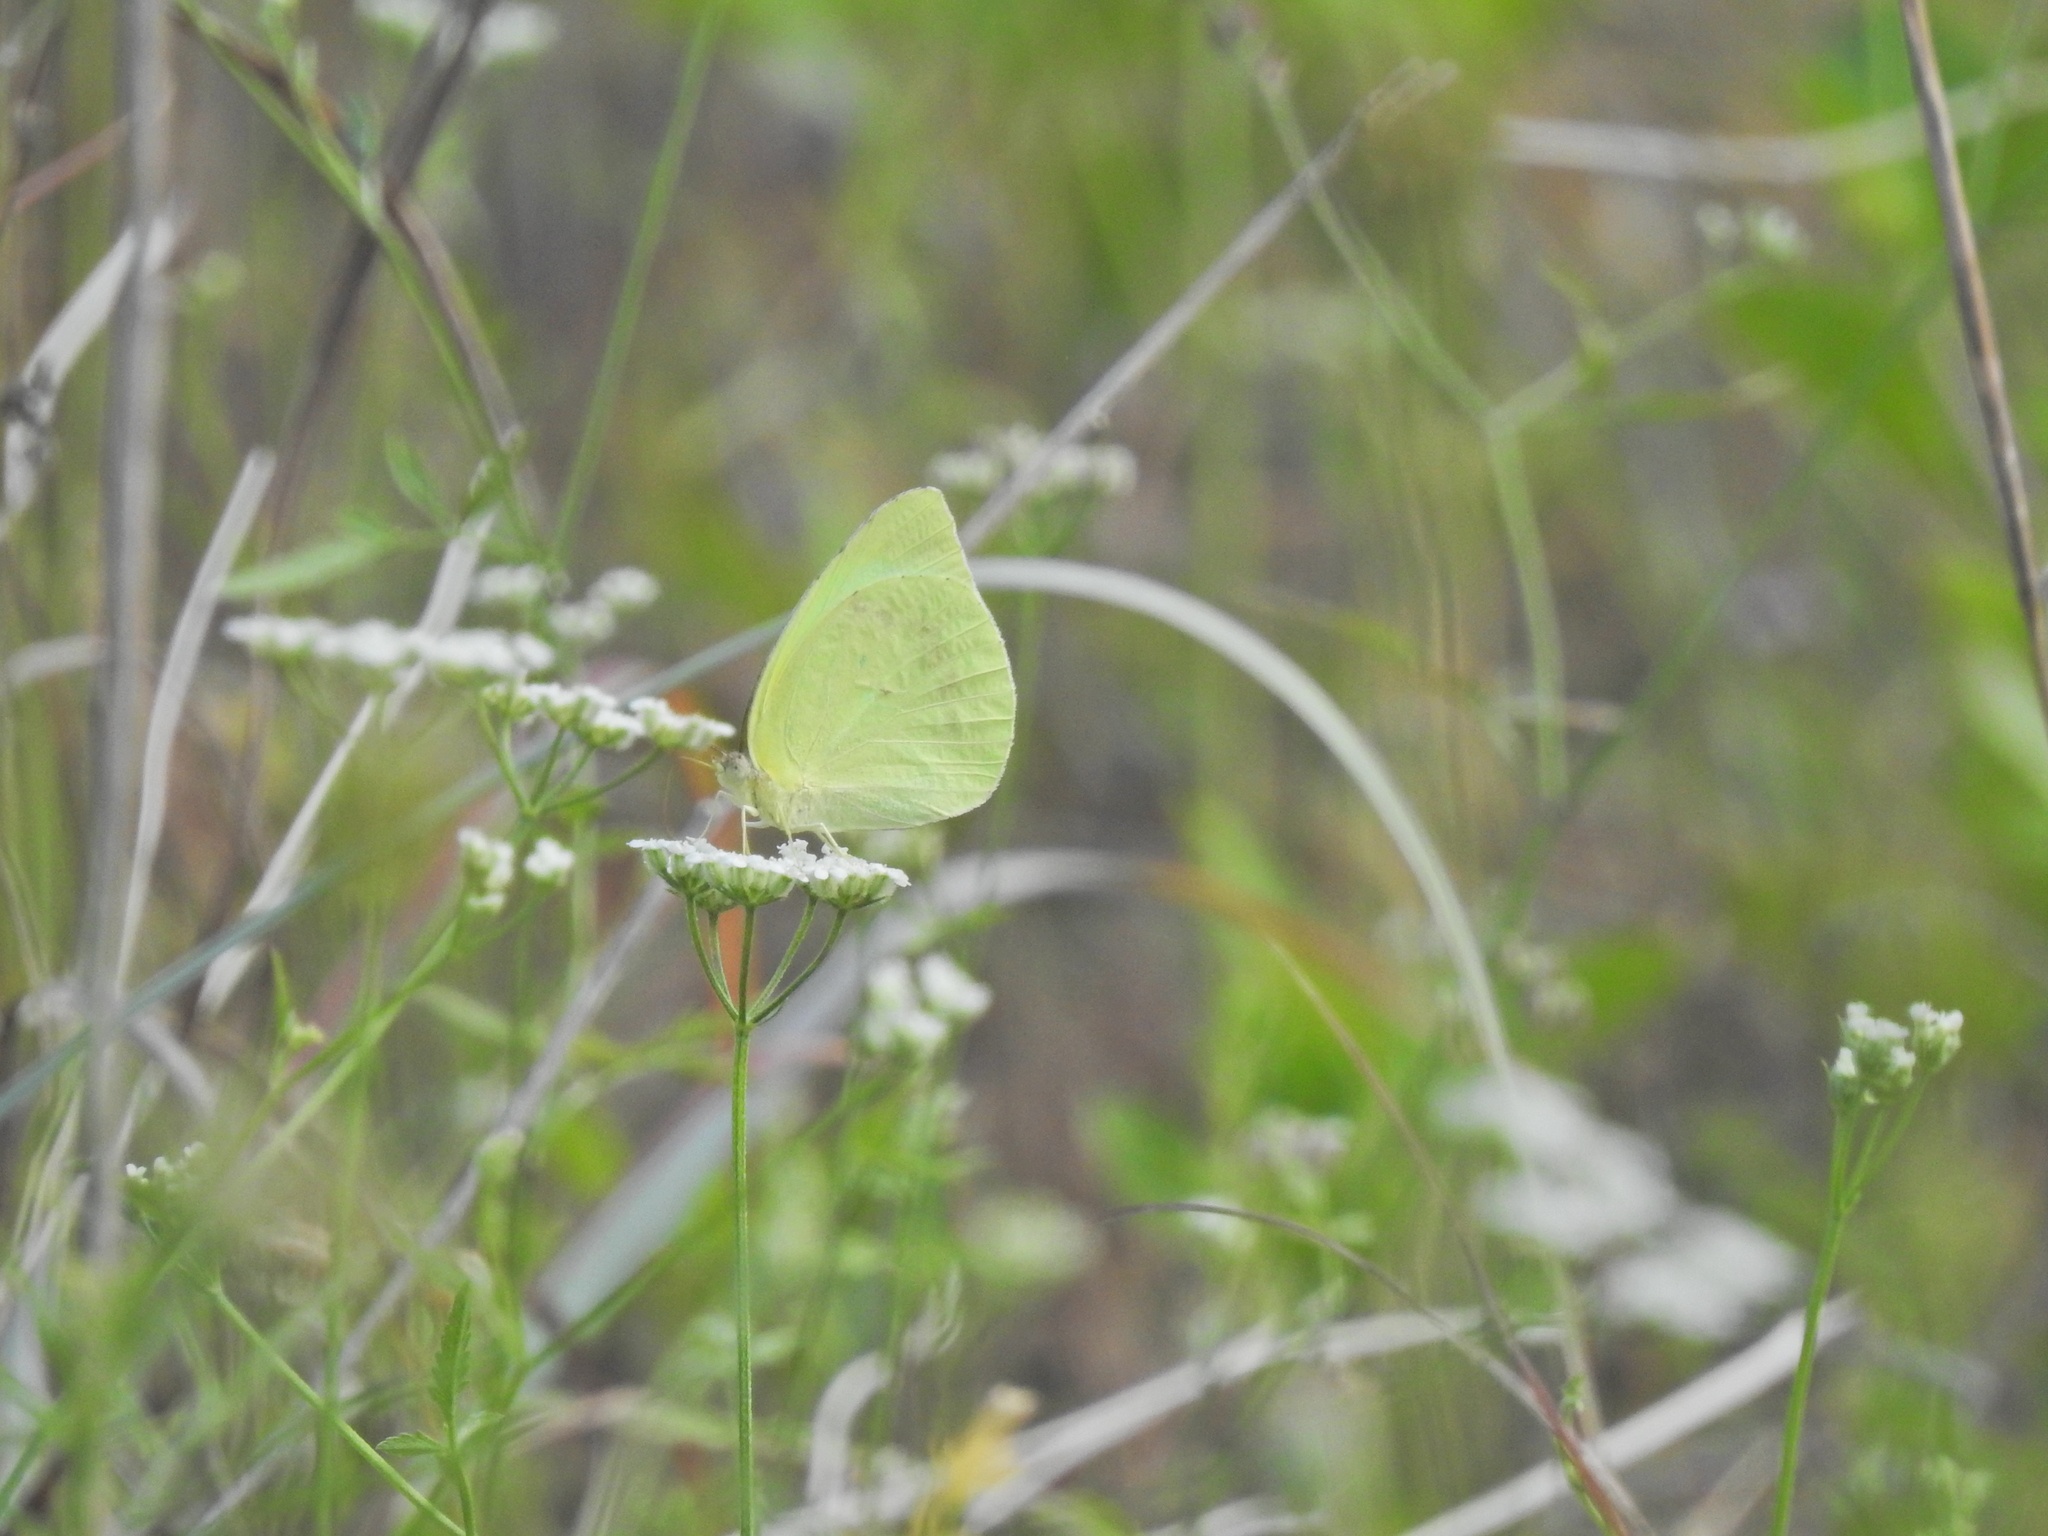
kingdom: Animalia
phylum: Arthropoda
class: Insecta
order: Lepidoptera
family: Pieridae
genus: Kricogonia
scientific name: Kricogonia lyside
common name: Guayacan sulphur,
